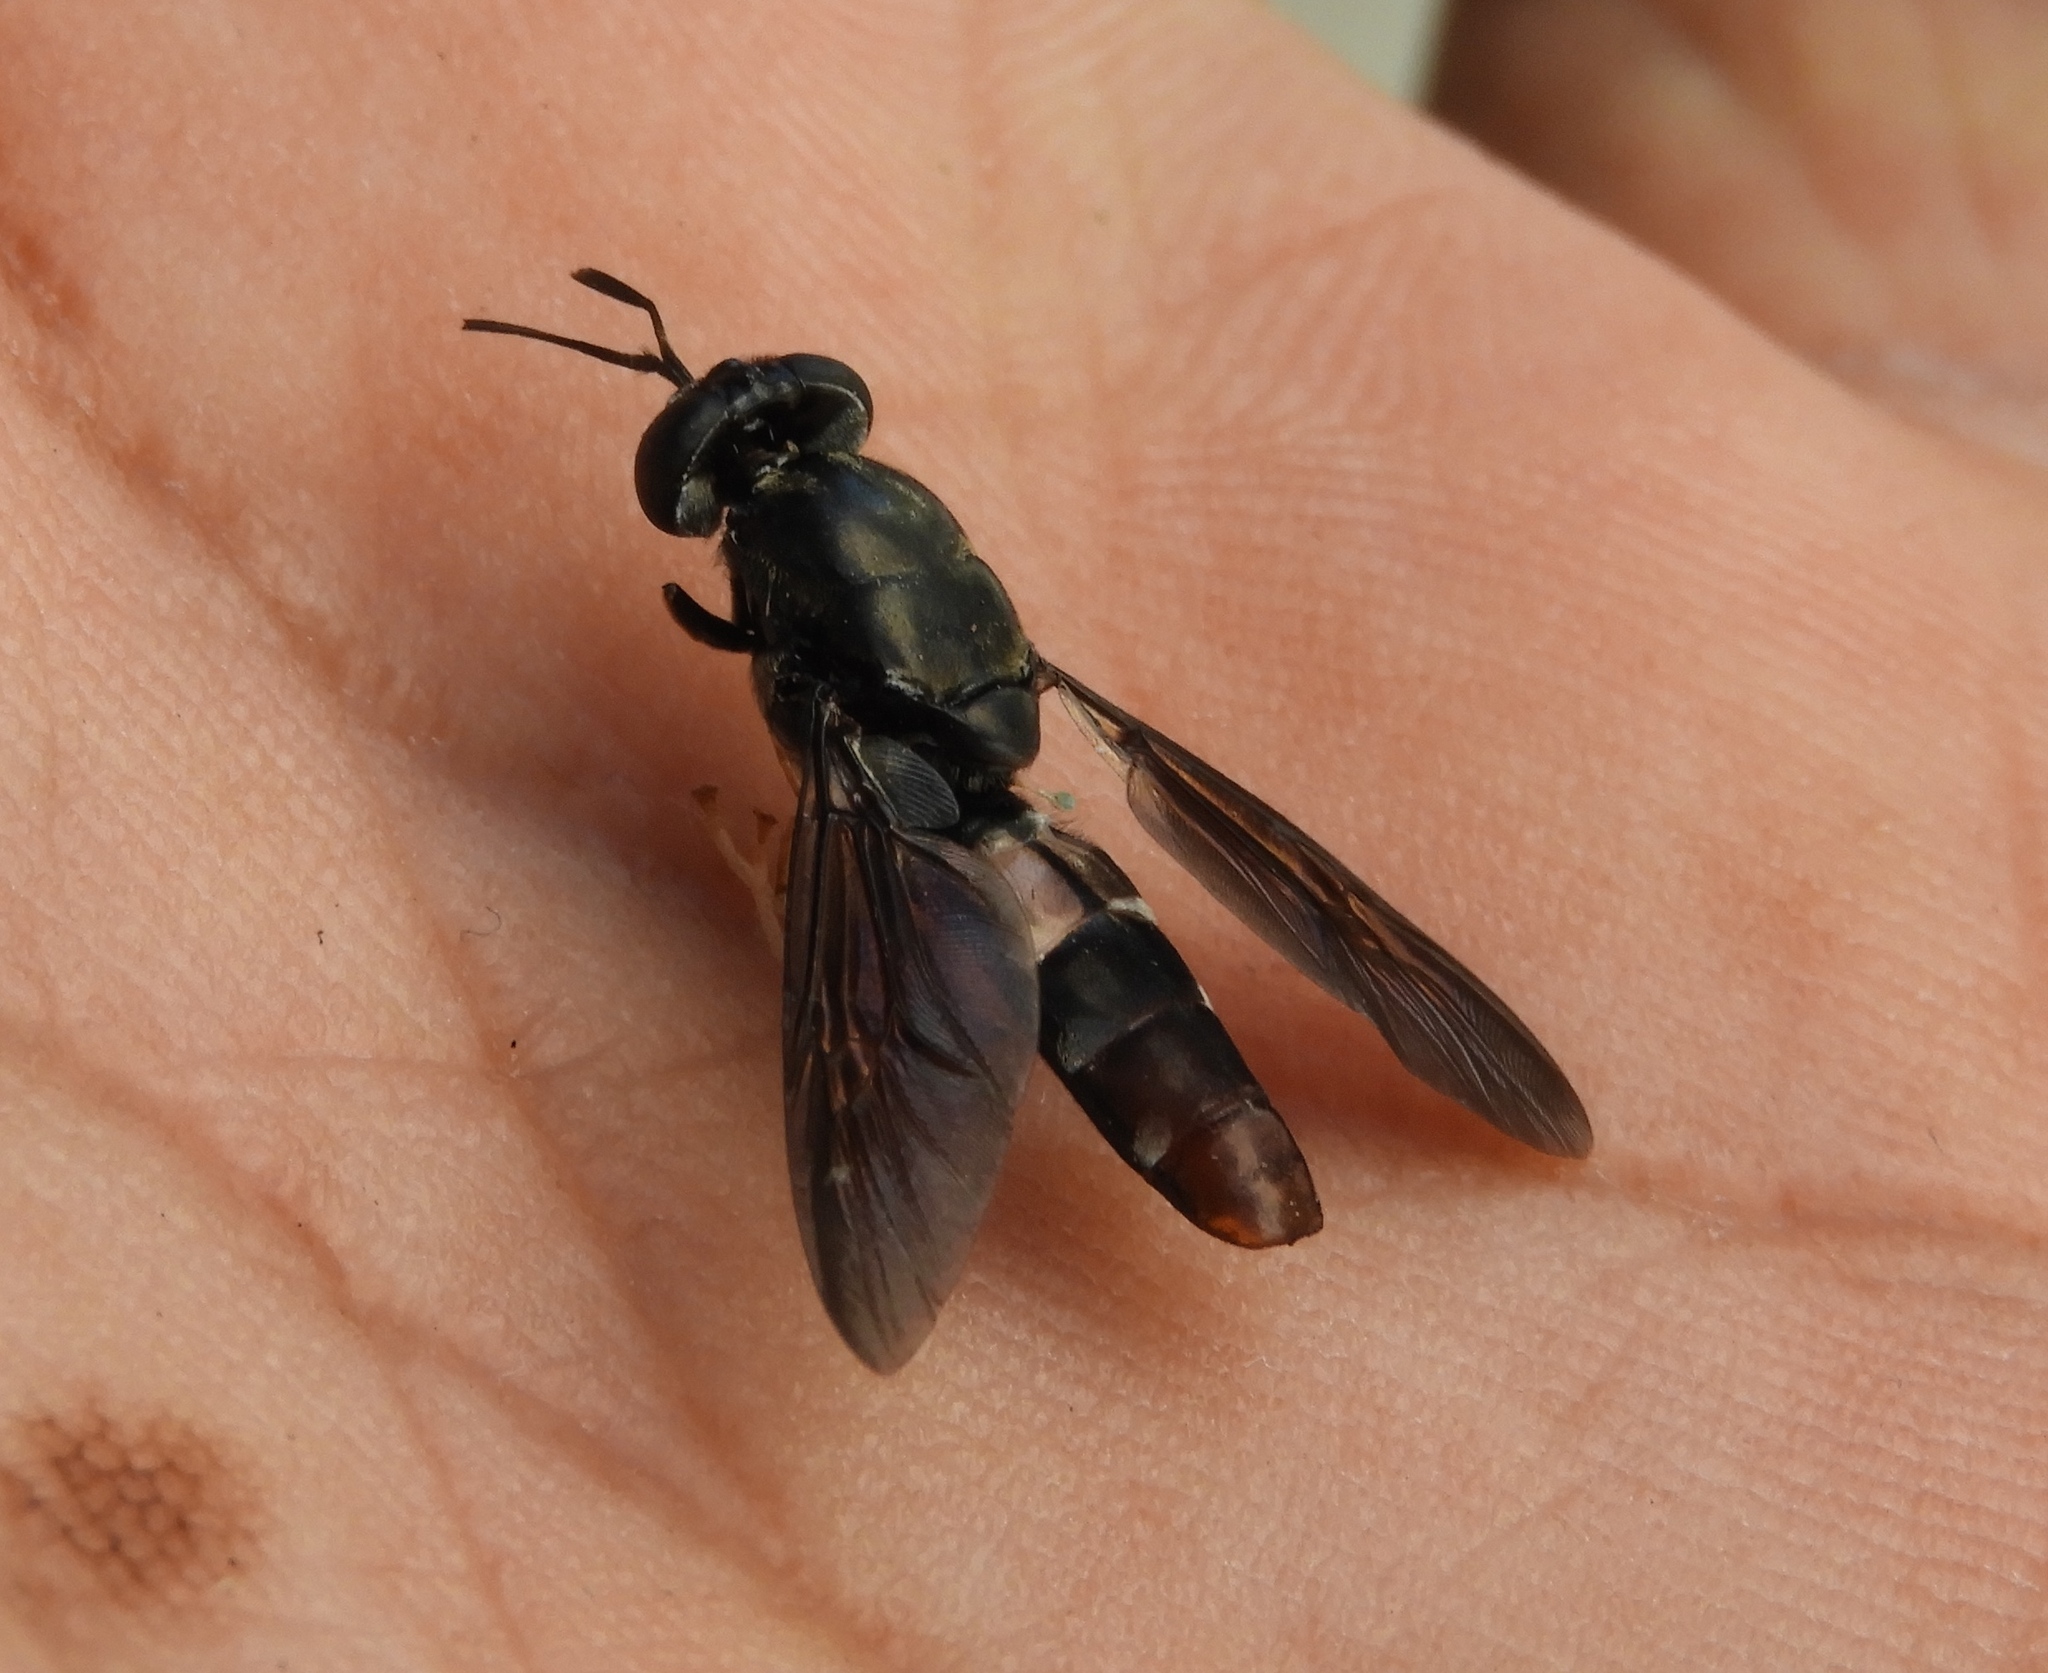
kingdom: Animalia
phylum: Arthropoda
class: Insecta
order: Diptera
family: Stratiomyidae
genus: Hermetia
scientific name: Hermetia illucens
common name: Black soldier fly
